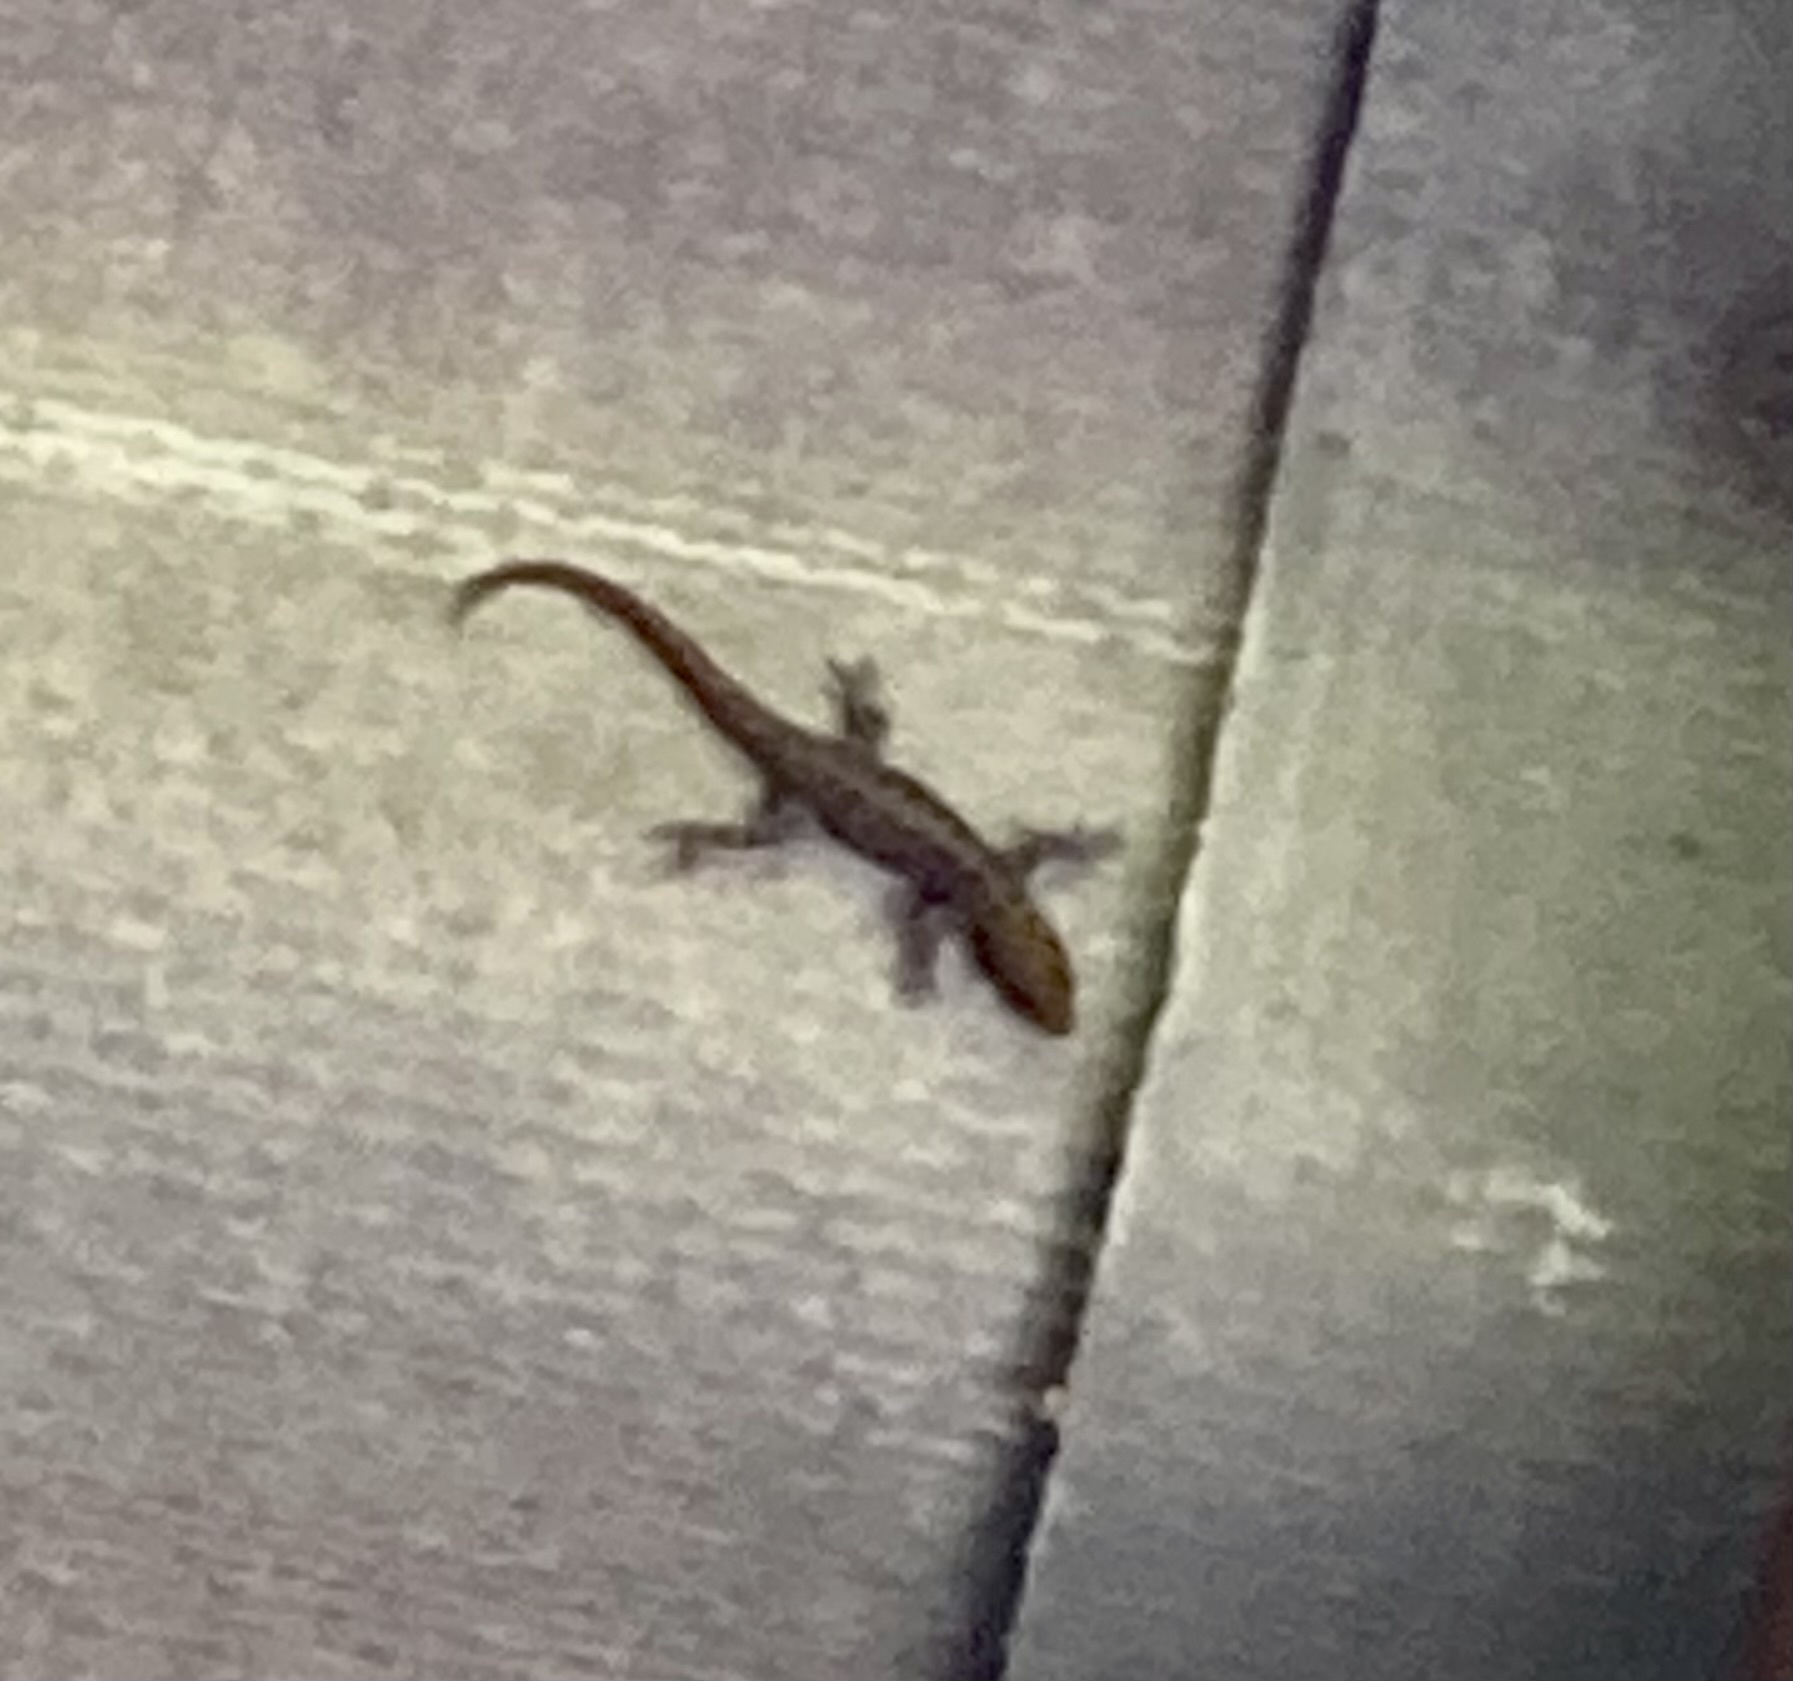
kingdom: Animalia
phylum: Chordata
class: Squamata
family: Sphaerodactylidae
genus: Gonatodes
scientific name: Gonatodes albogularis
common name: Yellow-headed gecko
